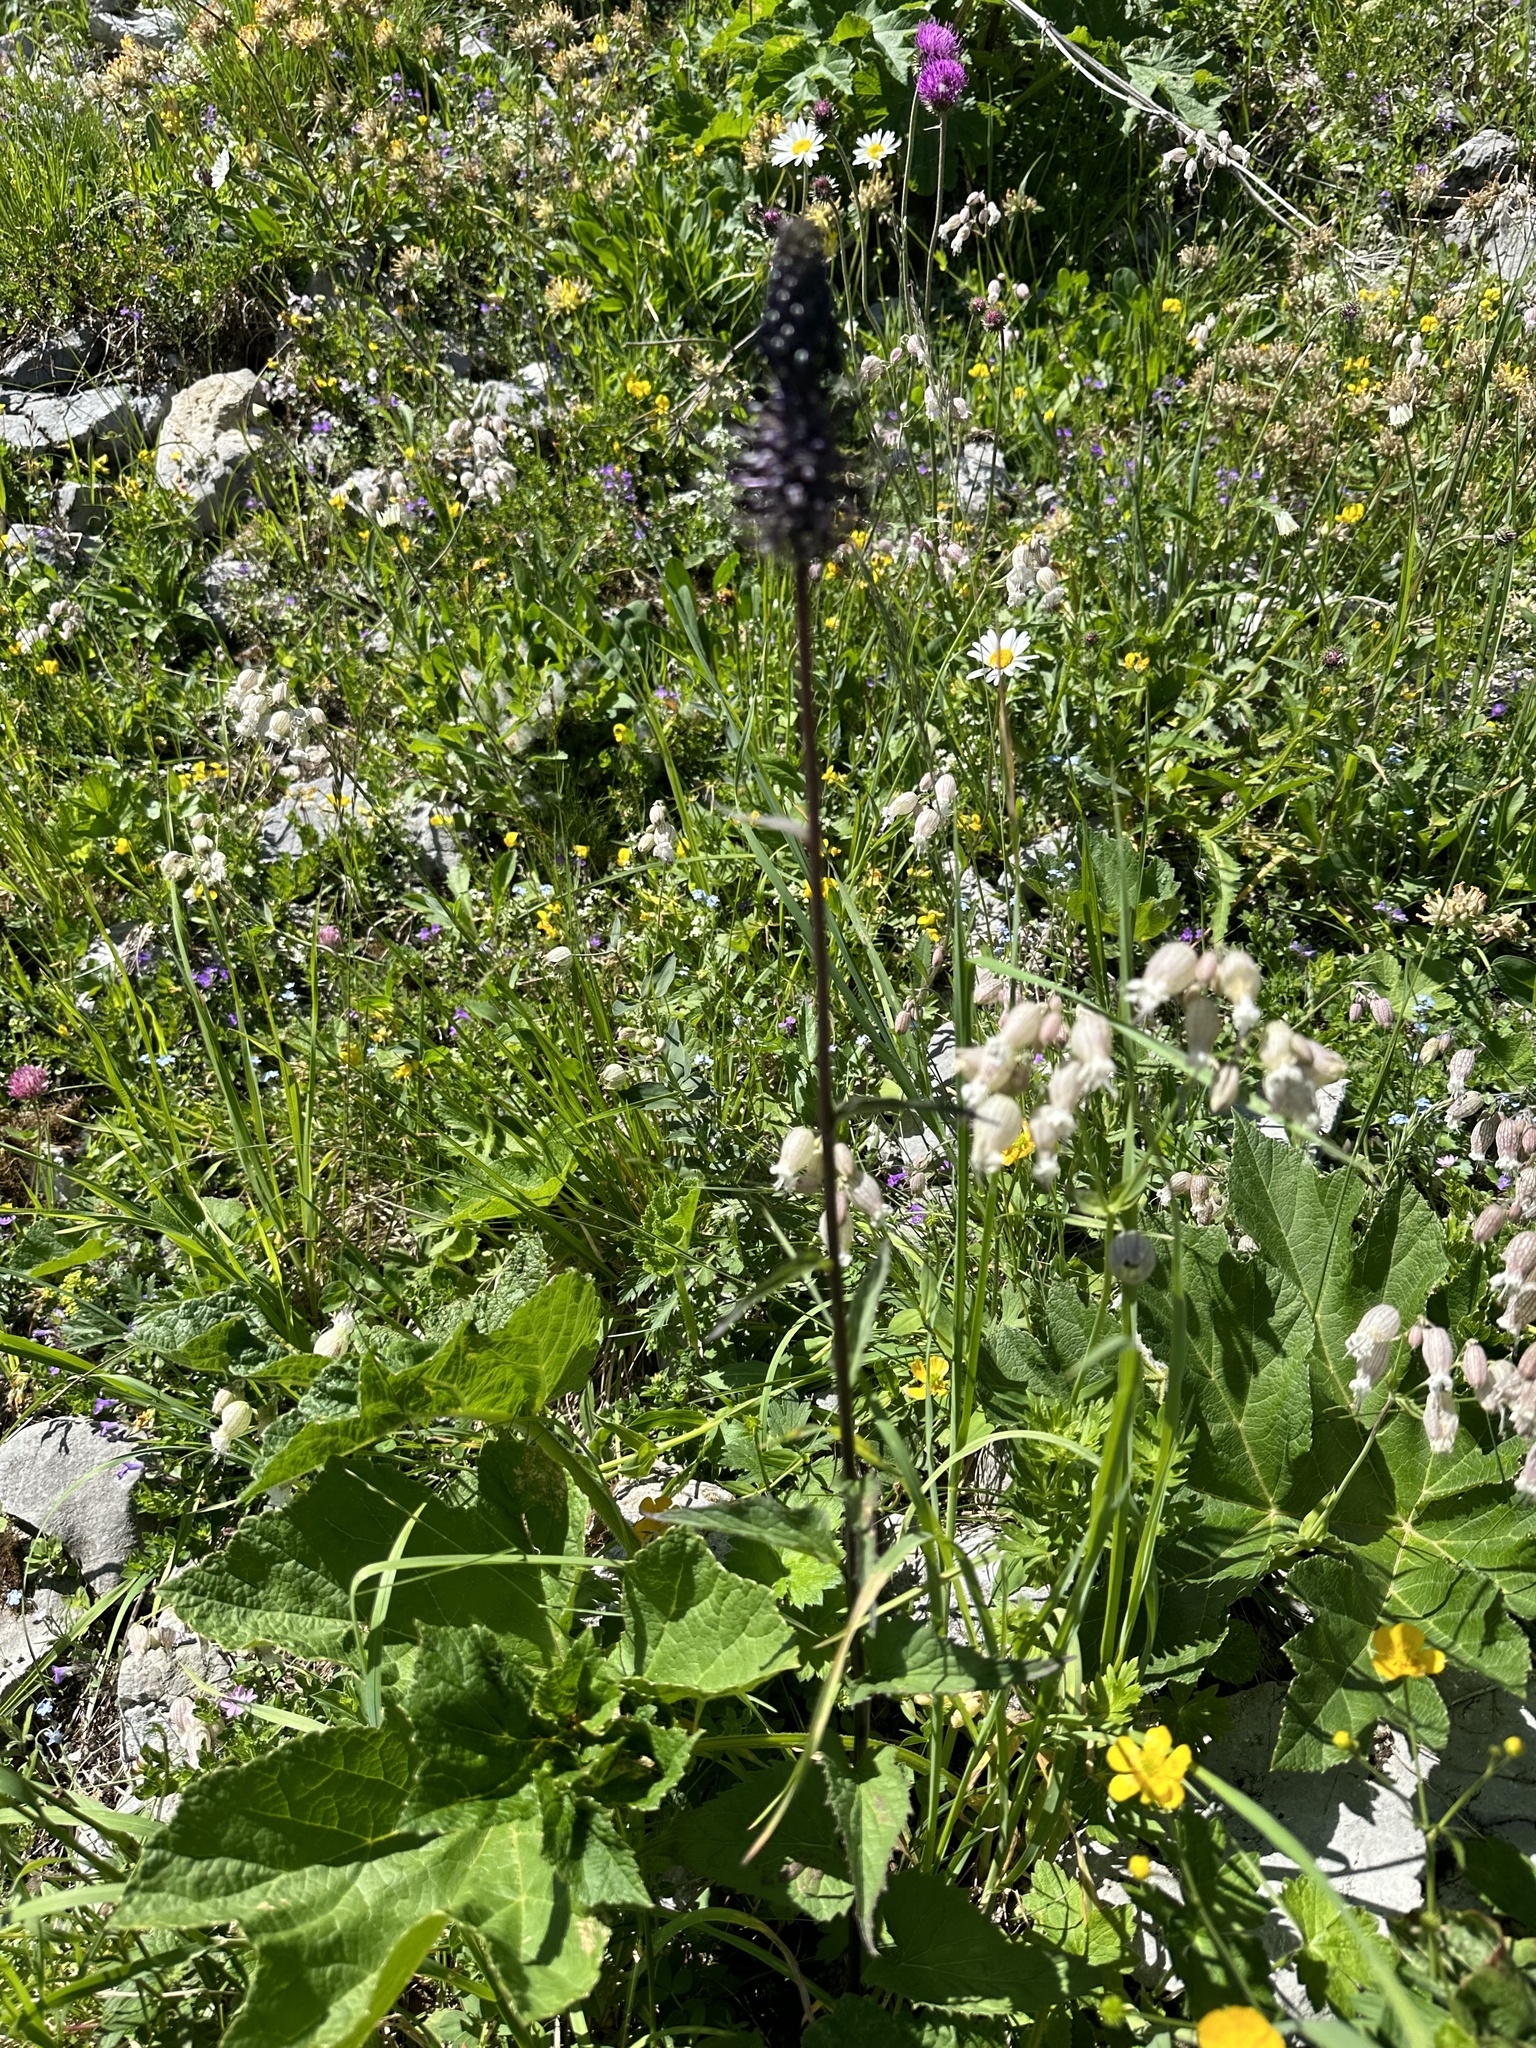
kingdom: Plantae
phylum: Tracheophyta
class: Magnoliopsida
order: Asterales
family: Campanulaceae
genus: Phyteuma
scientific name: Phyteuma ovatum
